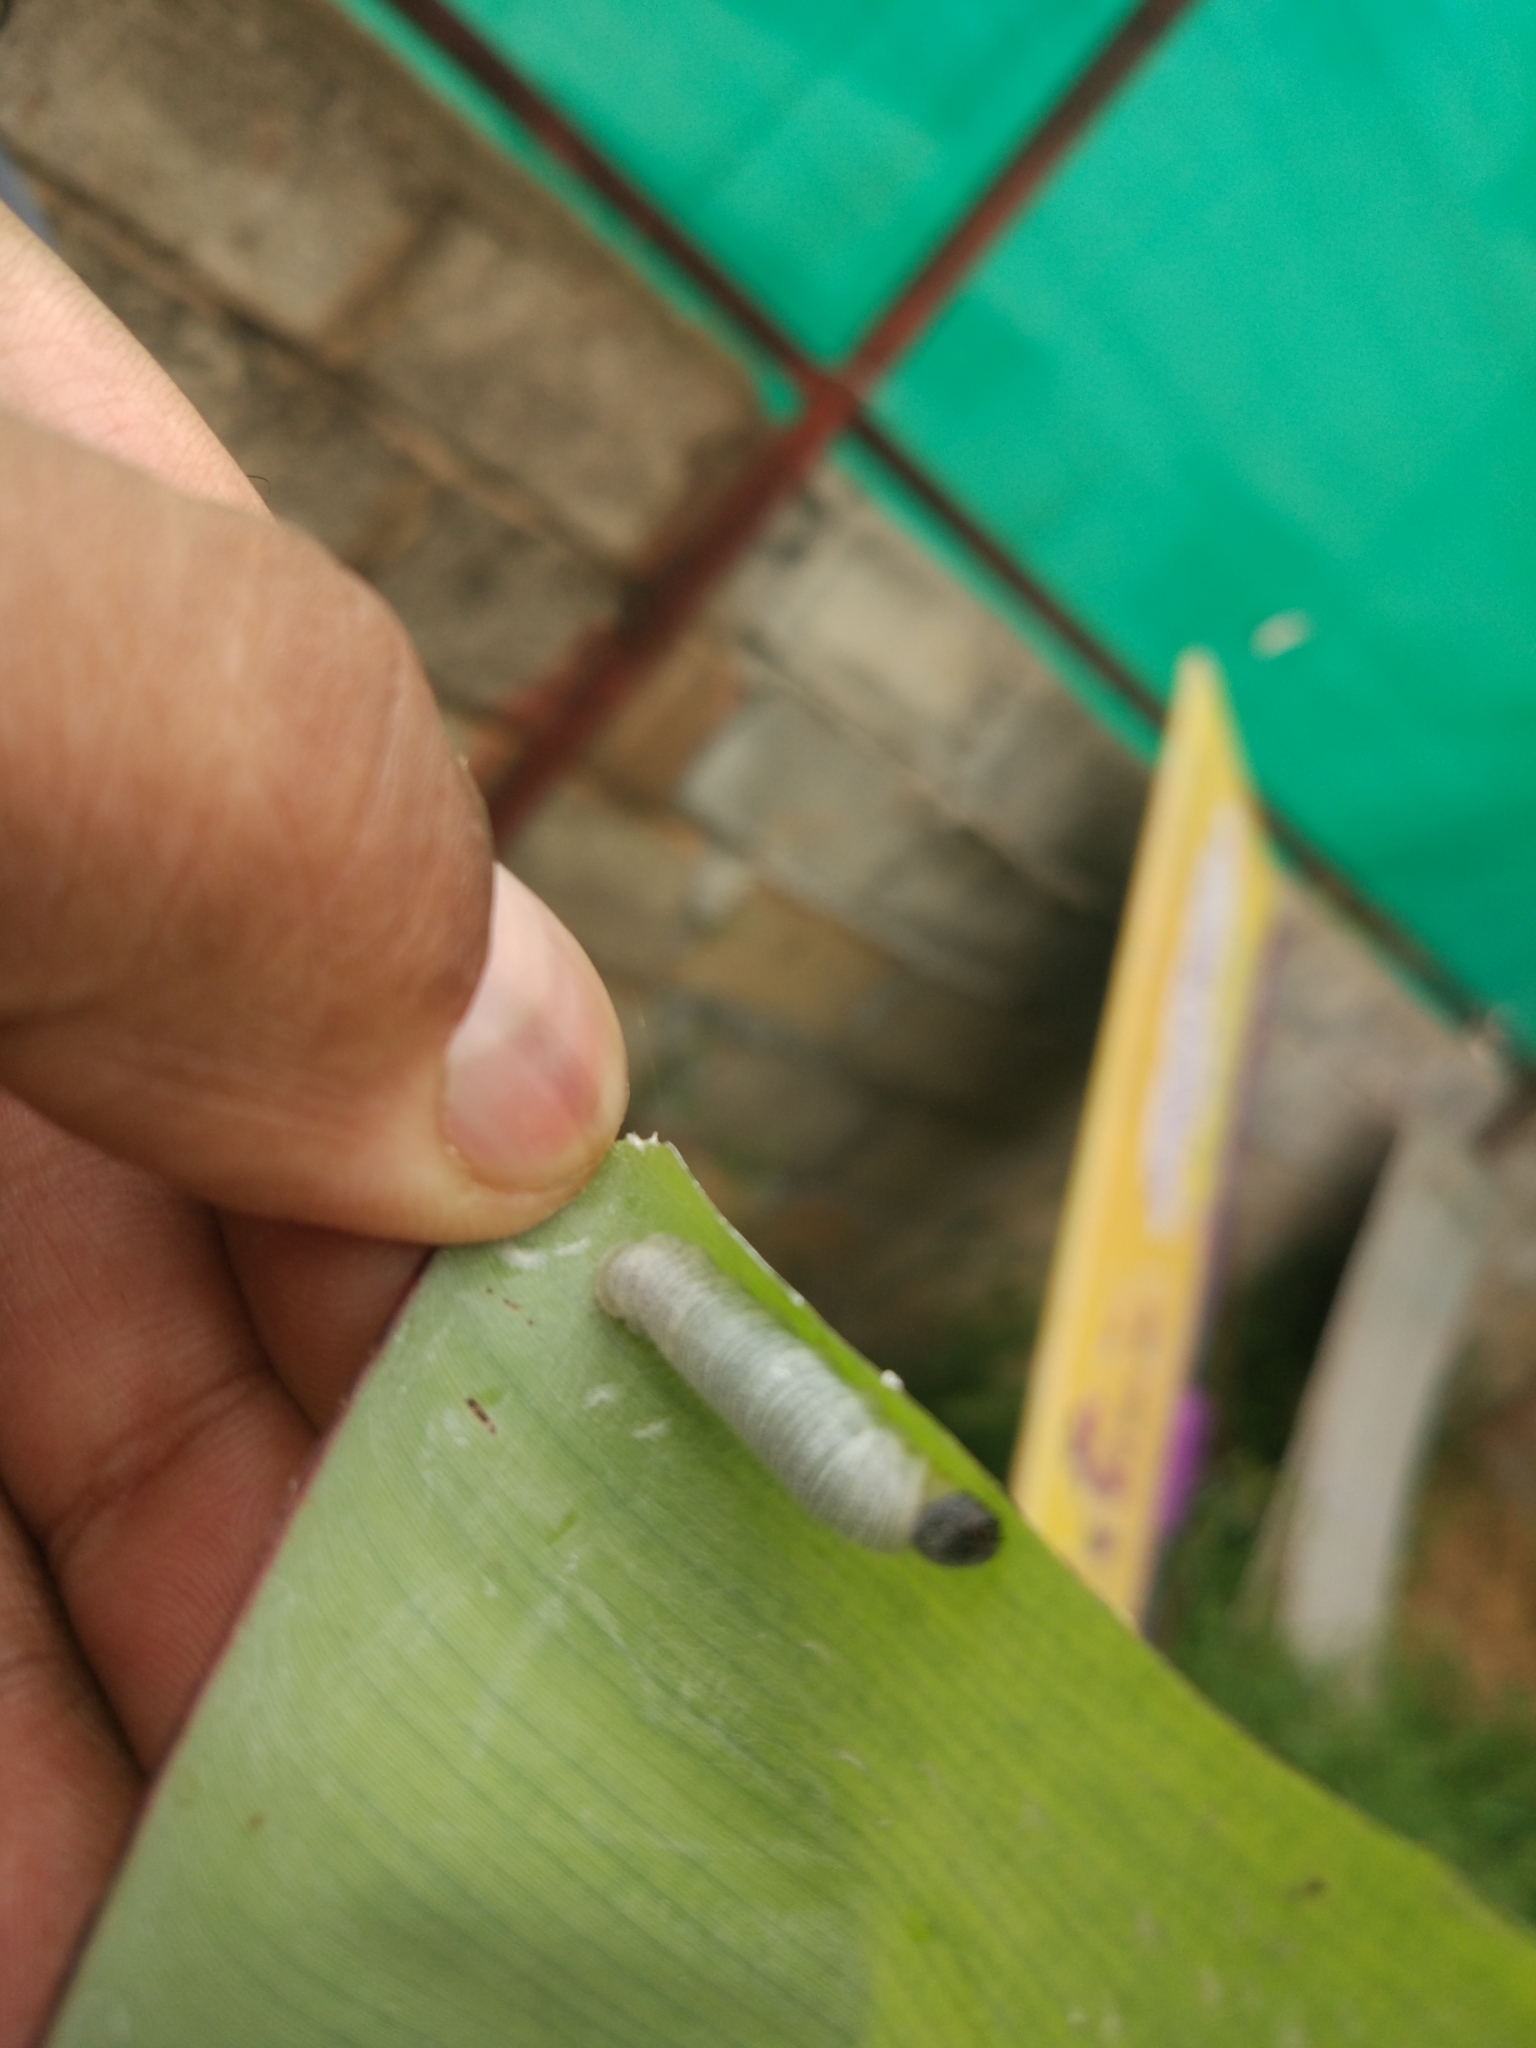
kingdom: Animalia
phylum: Arthropoda
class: Insecta
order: Lepidoptera
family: Hesperiidae
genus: Erionota
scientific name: Erionota torus
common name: Rounded palm-redeye
